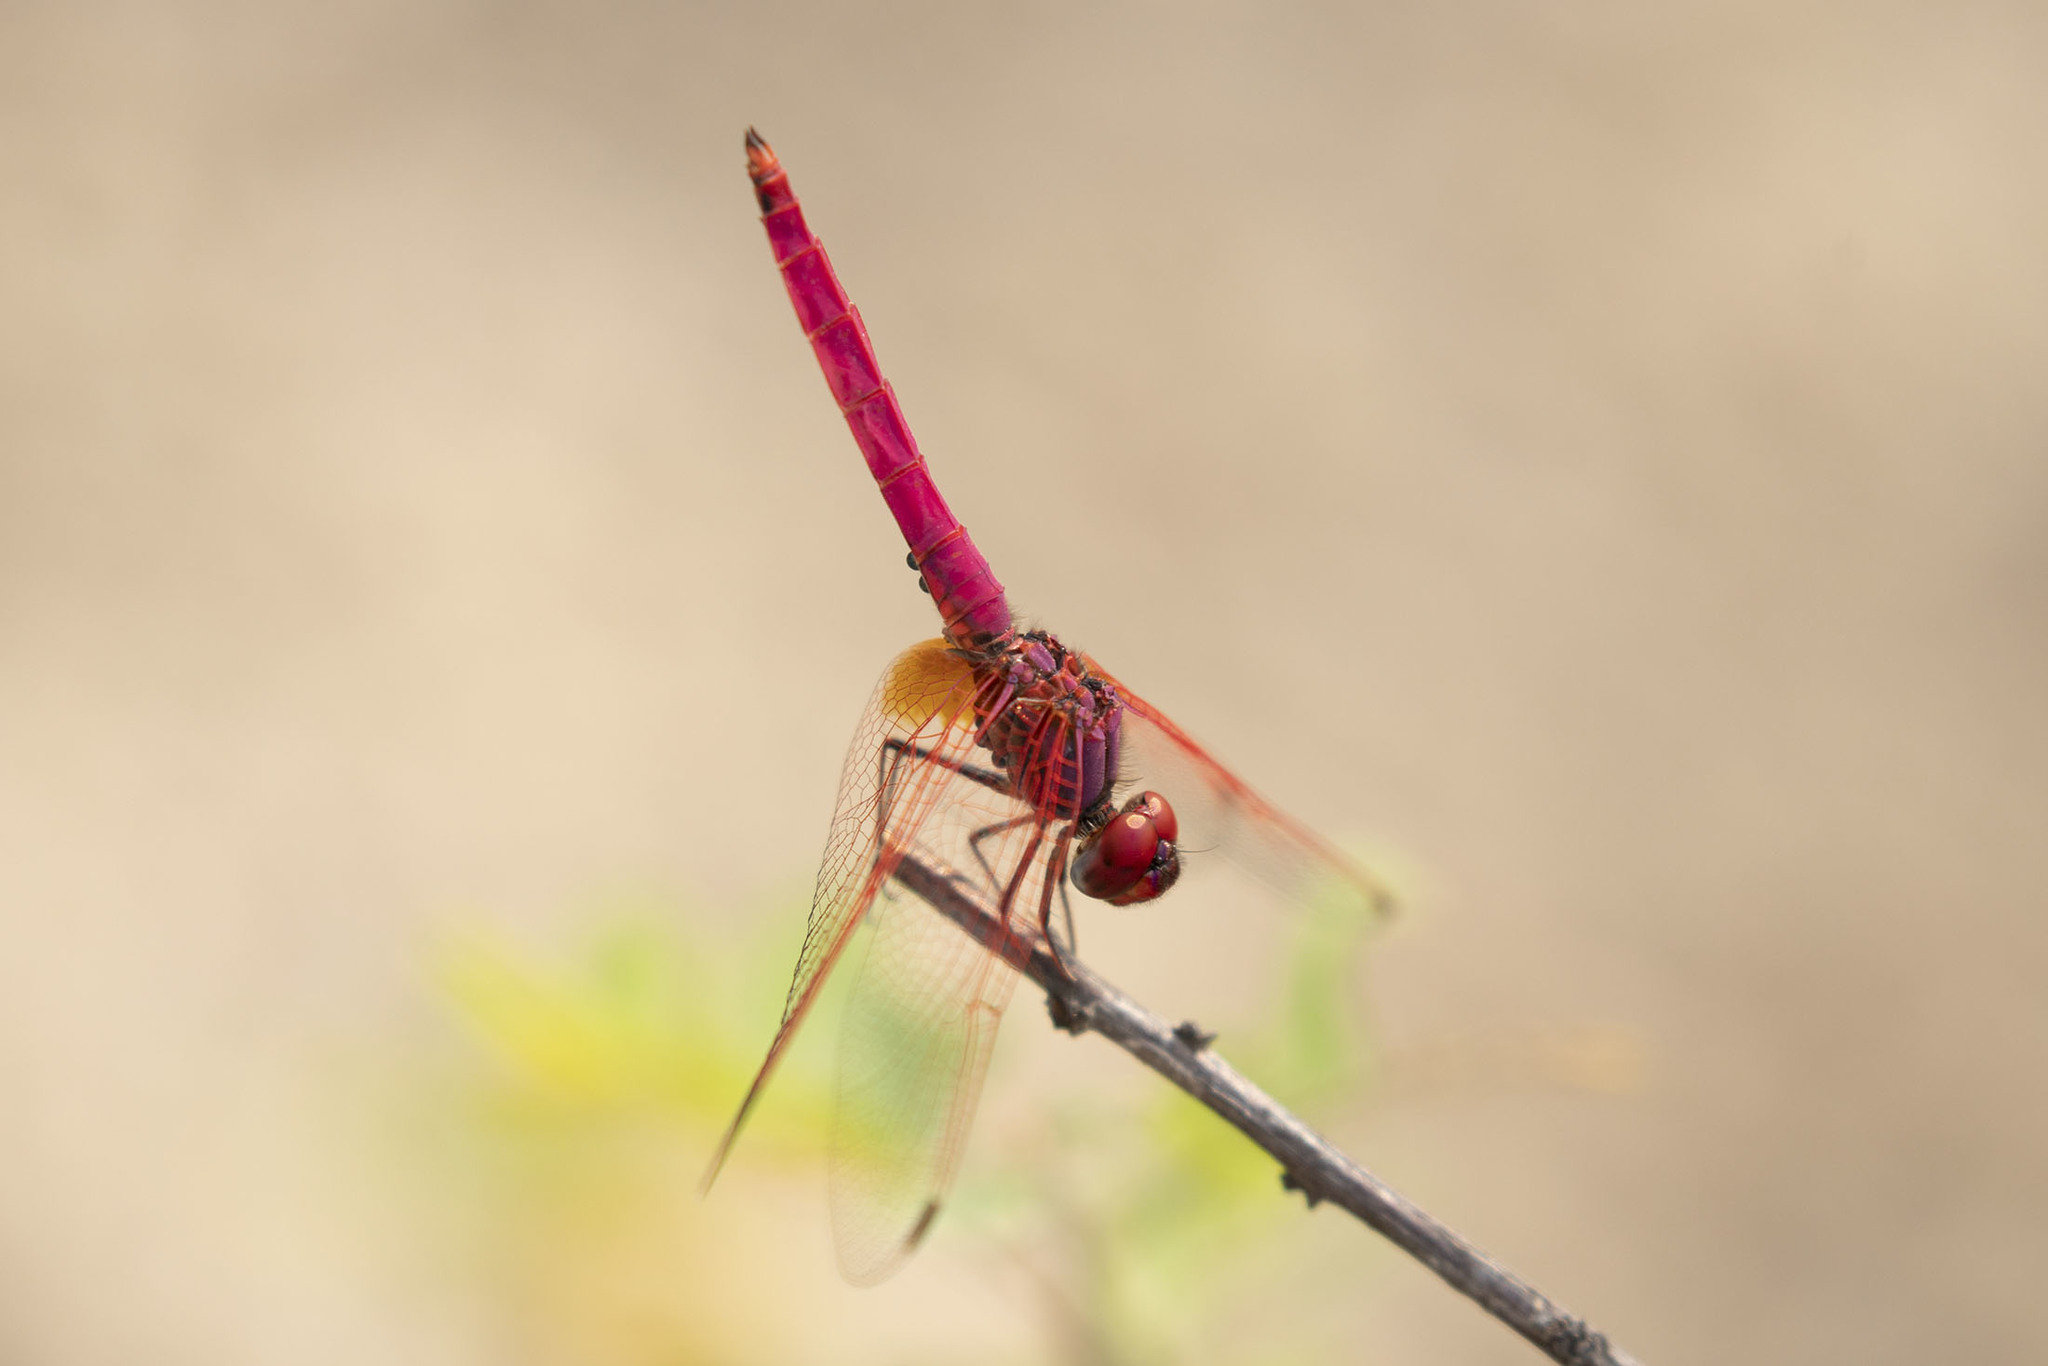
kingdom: Animalia
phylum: Arthropoda
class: Insecta
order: Odonata
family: Libellulidae
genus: Trithemis
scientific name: Trithemis aurora
